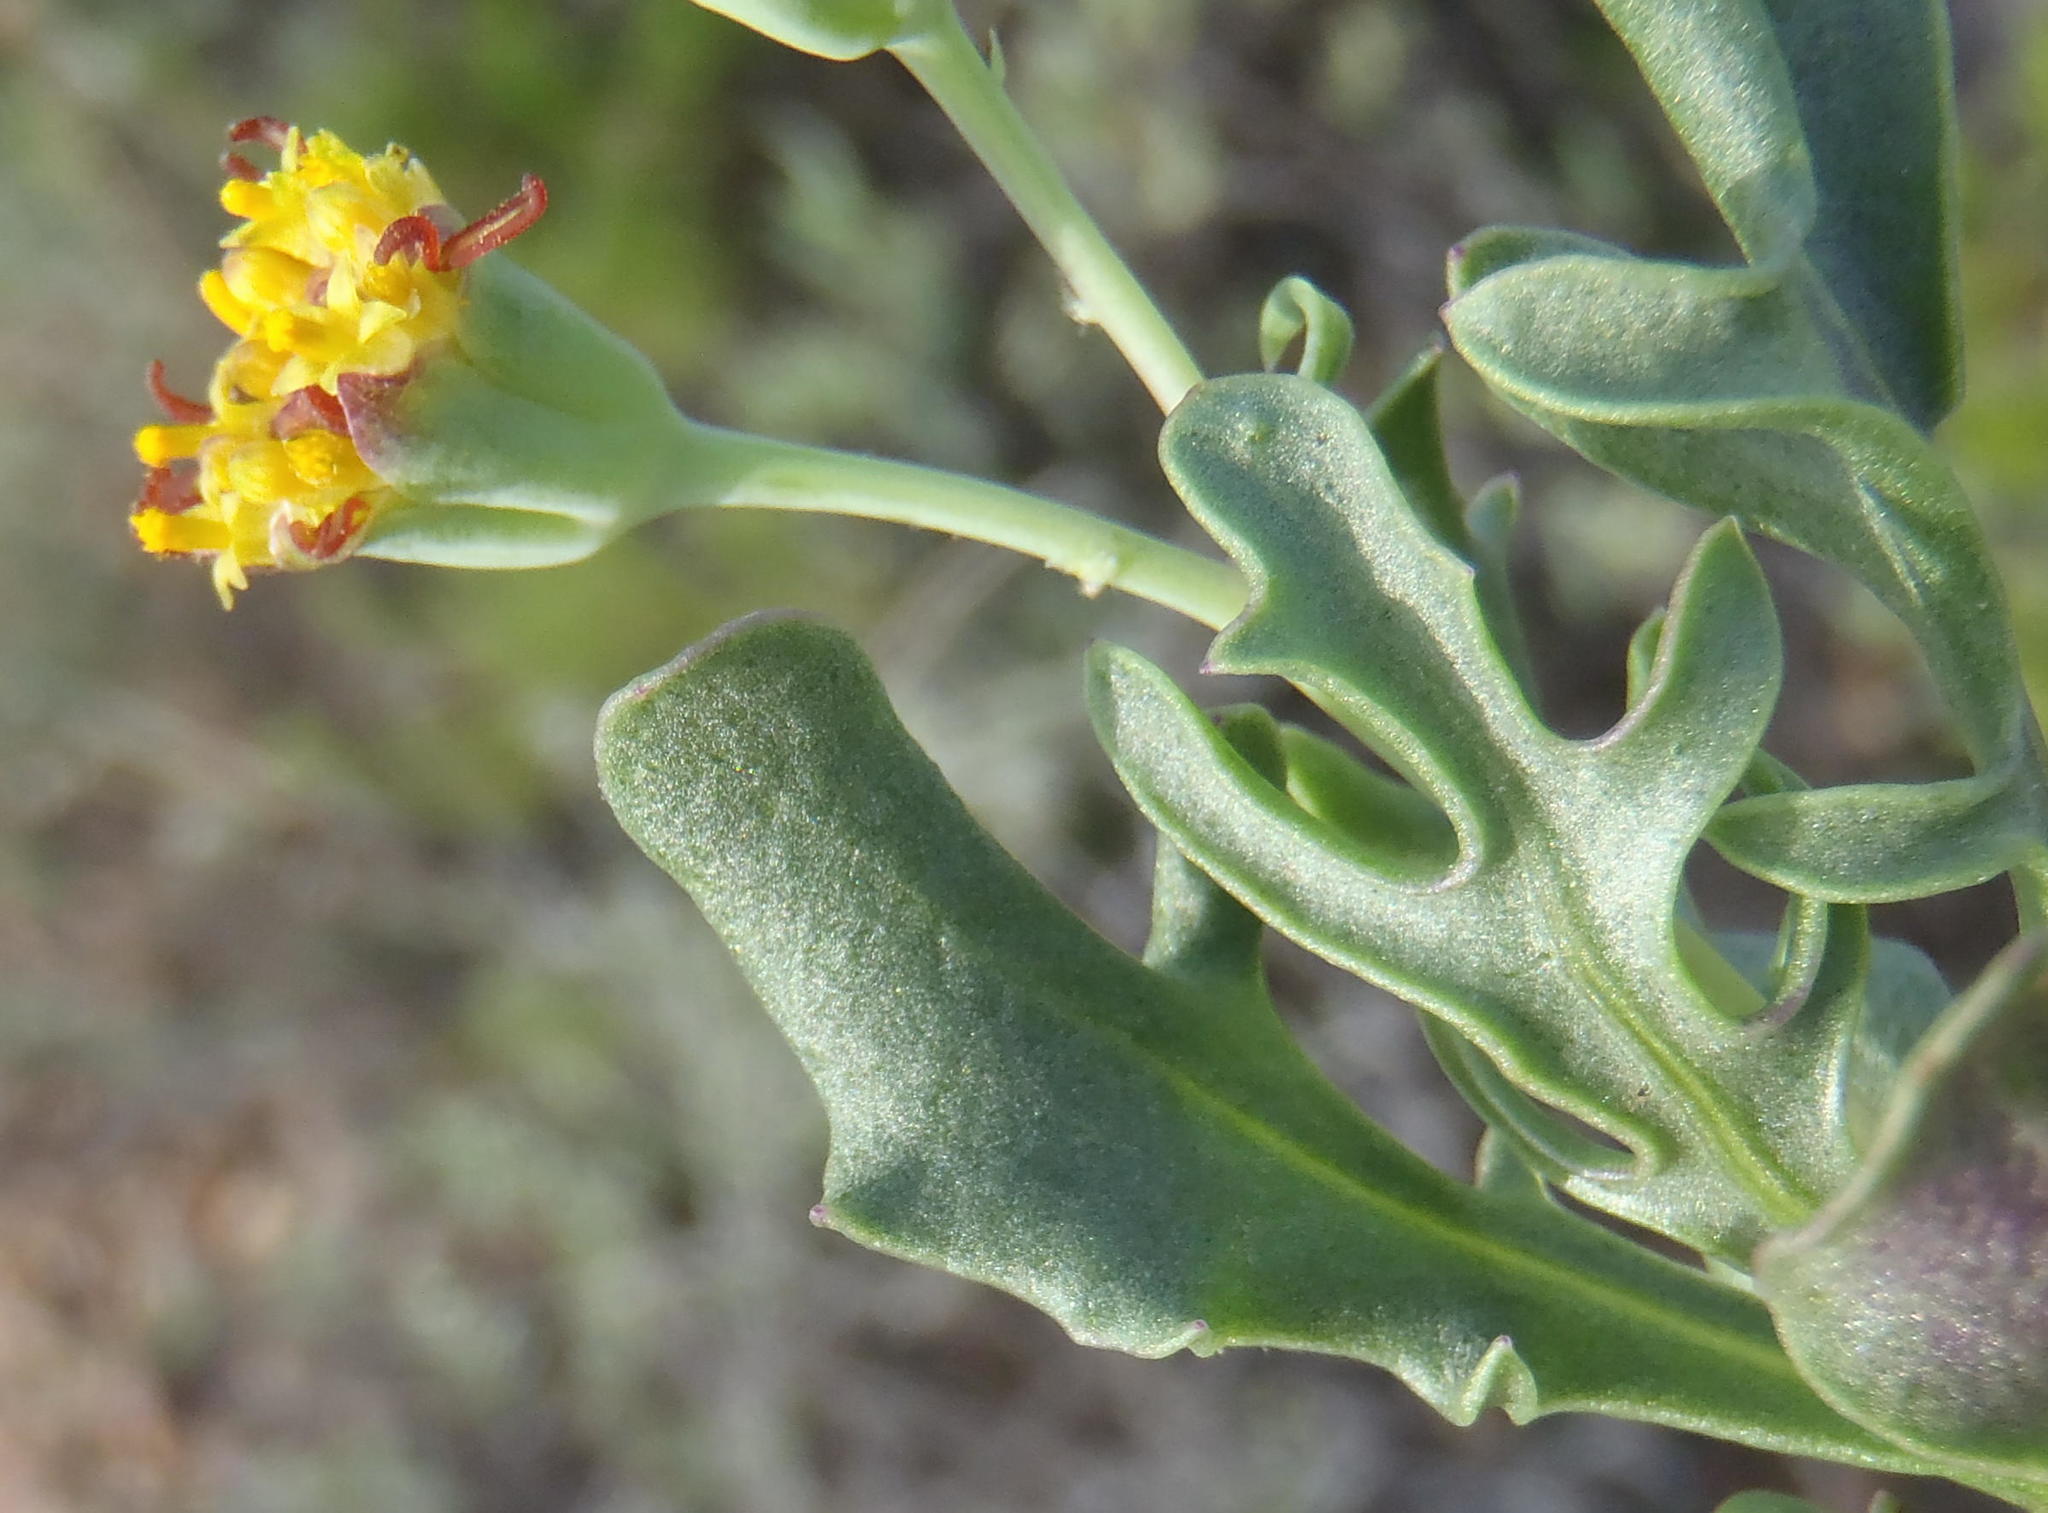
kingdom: Plantae
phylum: Tracheophyta
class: Magnoliopsida
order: Asterales
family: Asteraceae
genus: Othonna
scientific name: Othonna retrofracta
